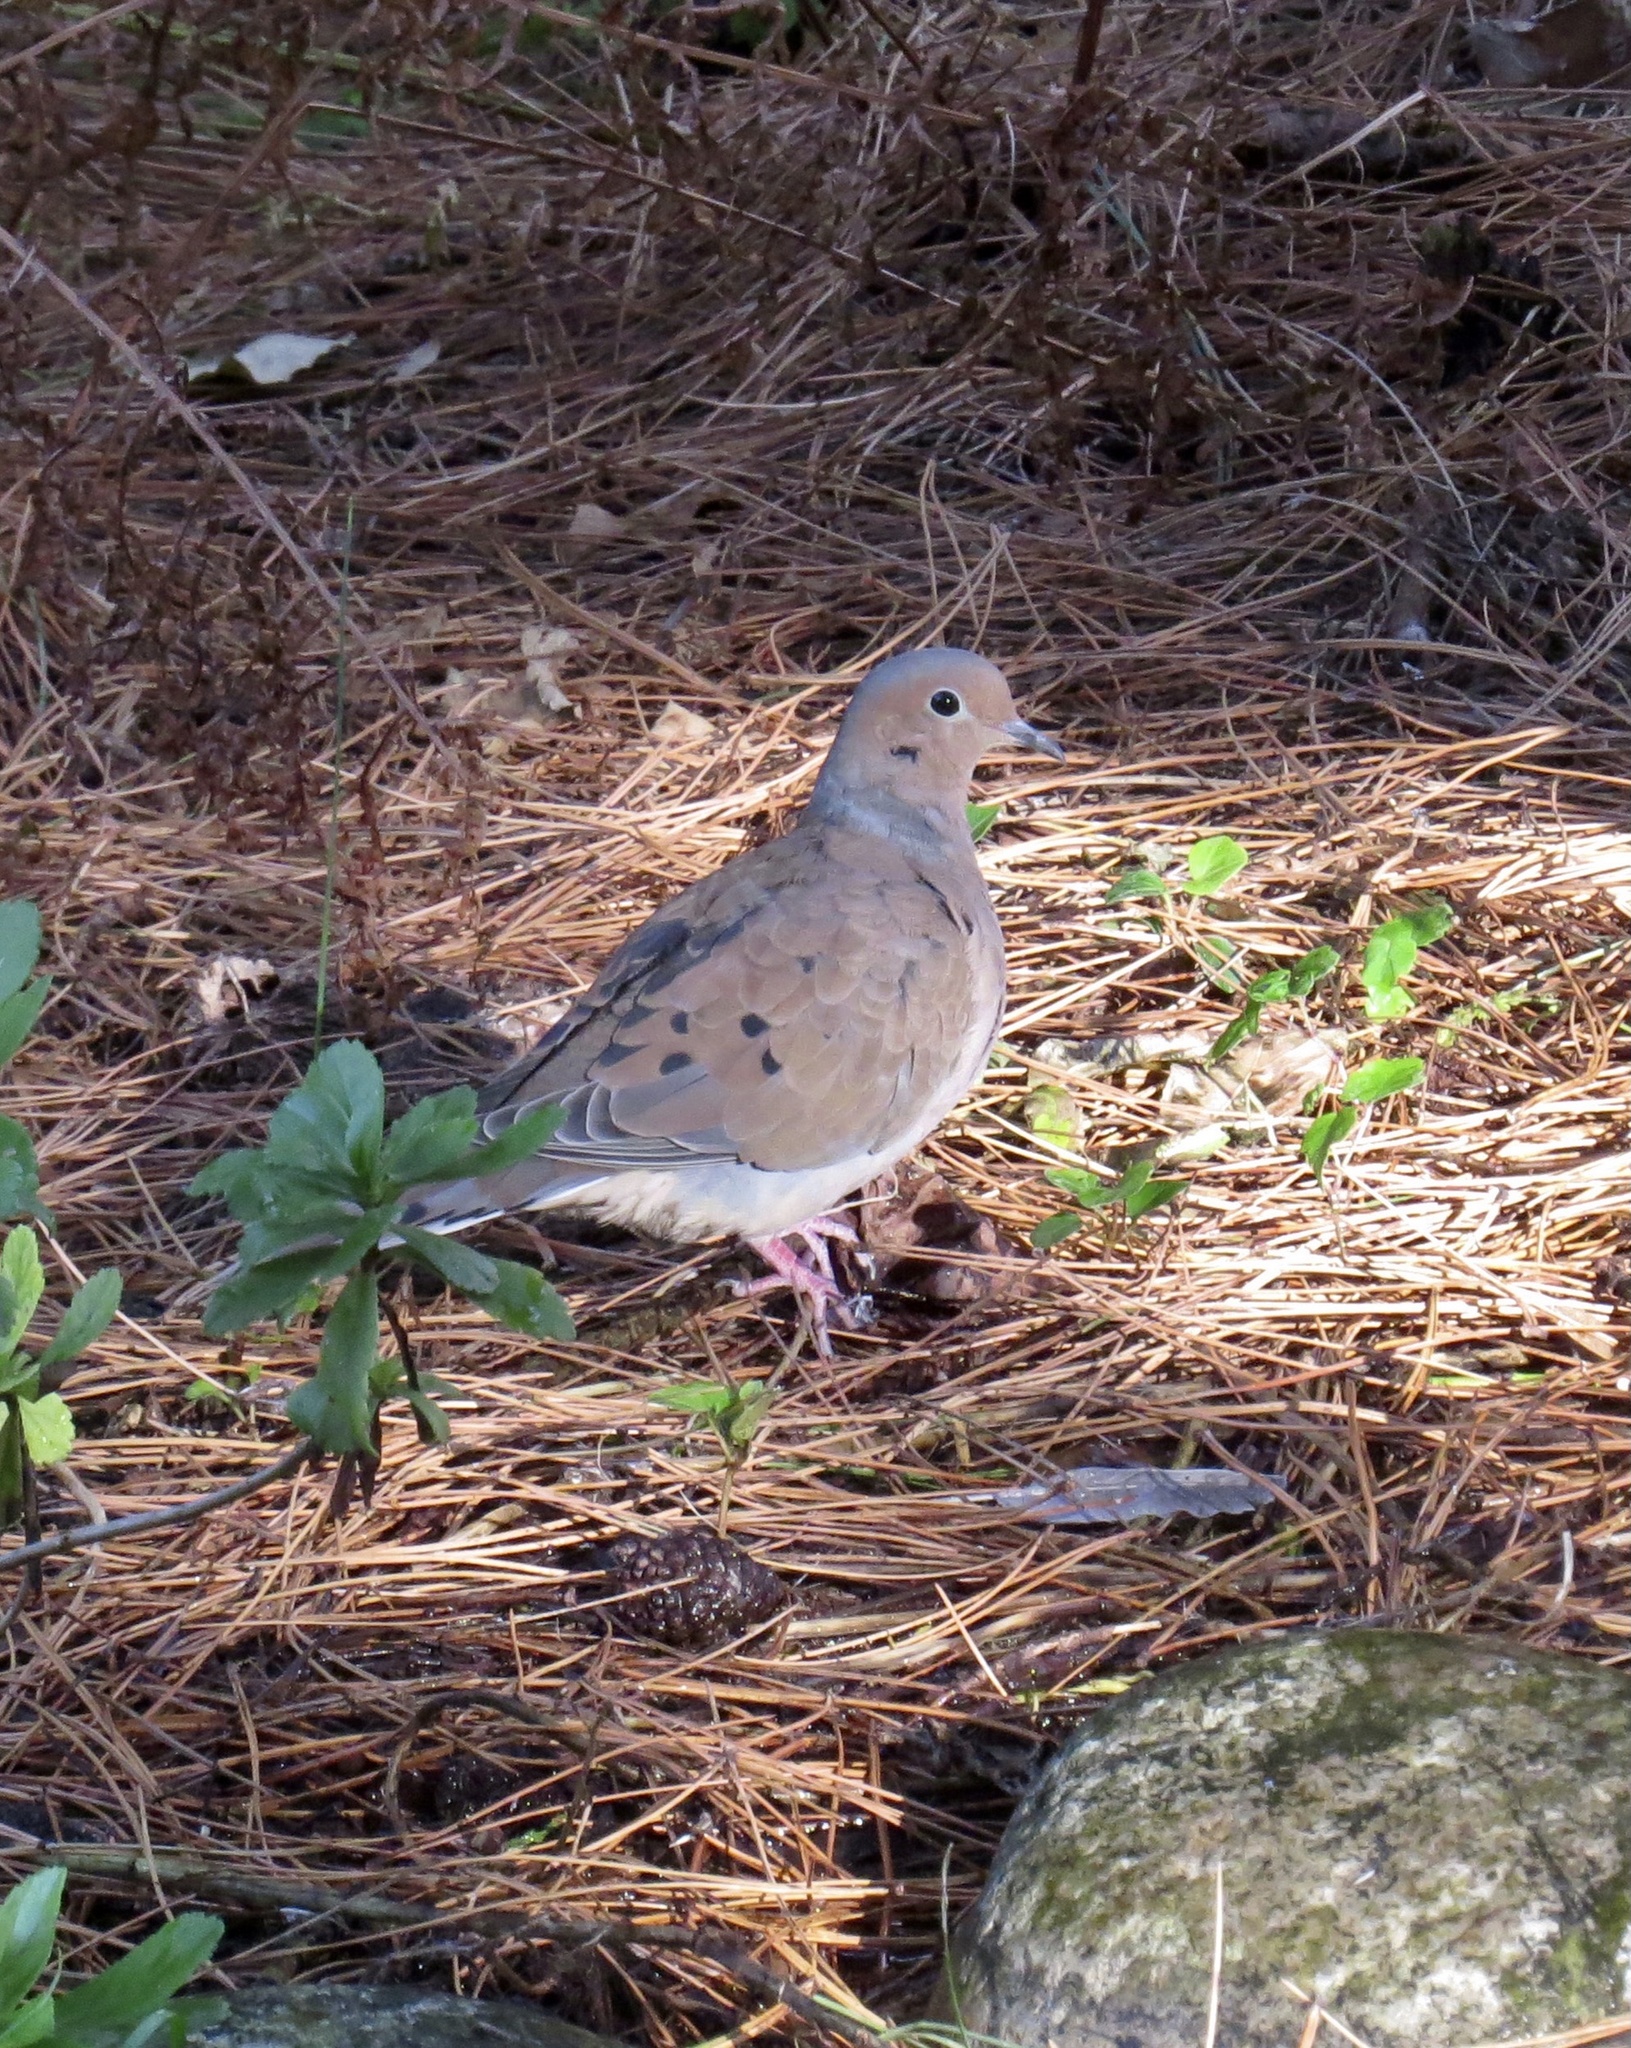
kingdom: Animalia
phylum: Chordata
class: Aves
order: Columbiformes
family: Columbidae
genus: Zenaida
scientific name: Zenaida macroura
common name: Mourning dove
